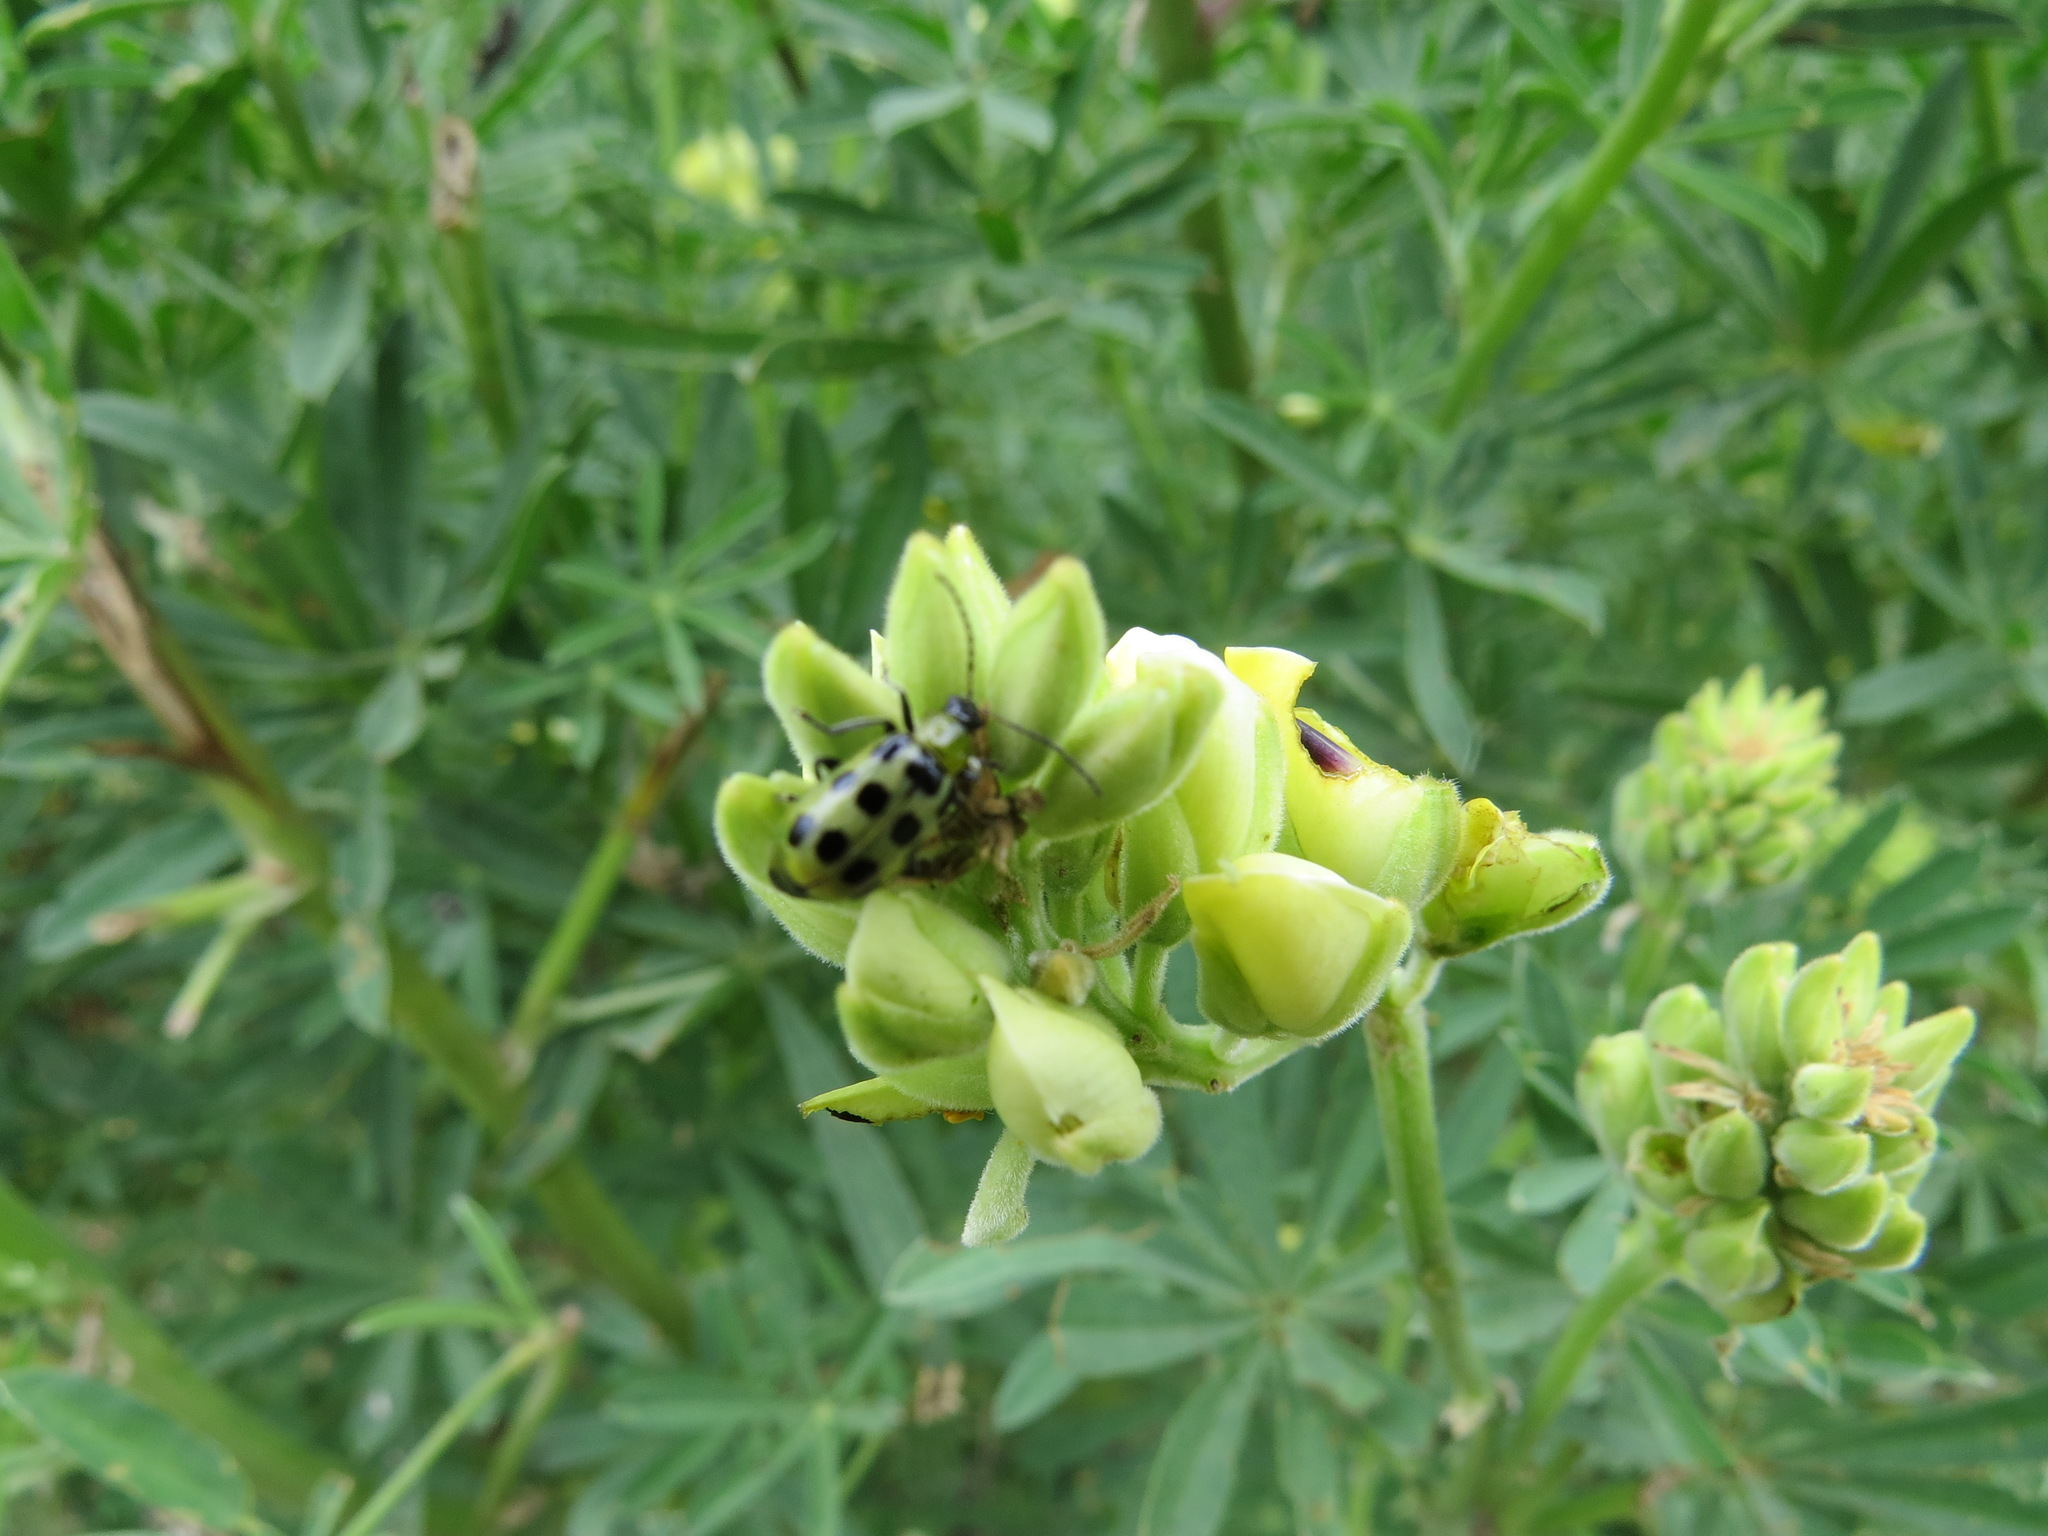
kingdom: Animalia
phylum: Arthropoda
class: Insecta
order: Coleoptera
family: Chrysomelidae
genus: Diabrotica
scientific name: Diabrotica undecimpunctata
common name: Spotted cucumber beetle
